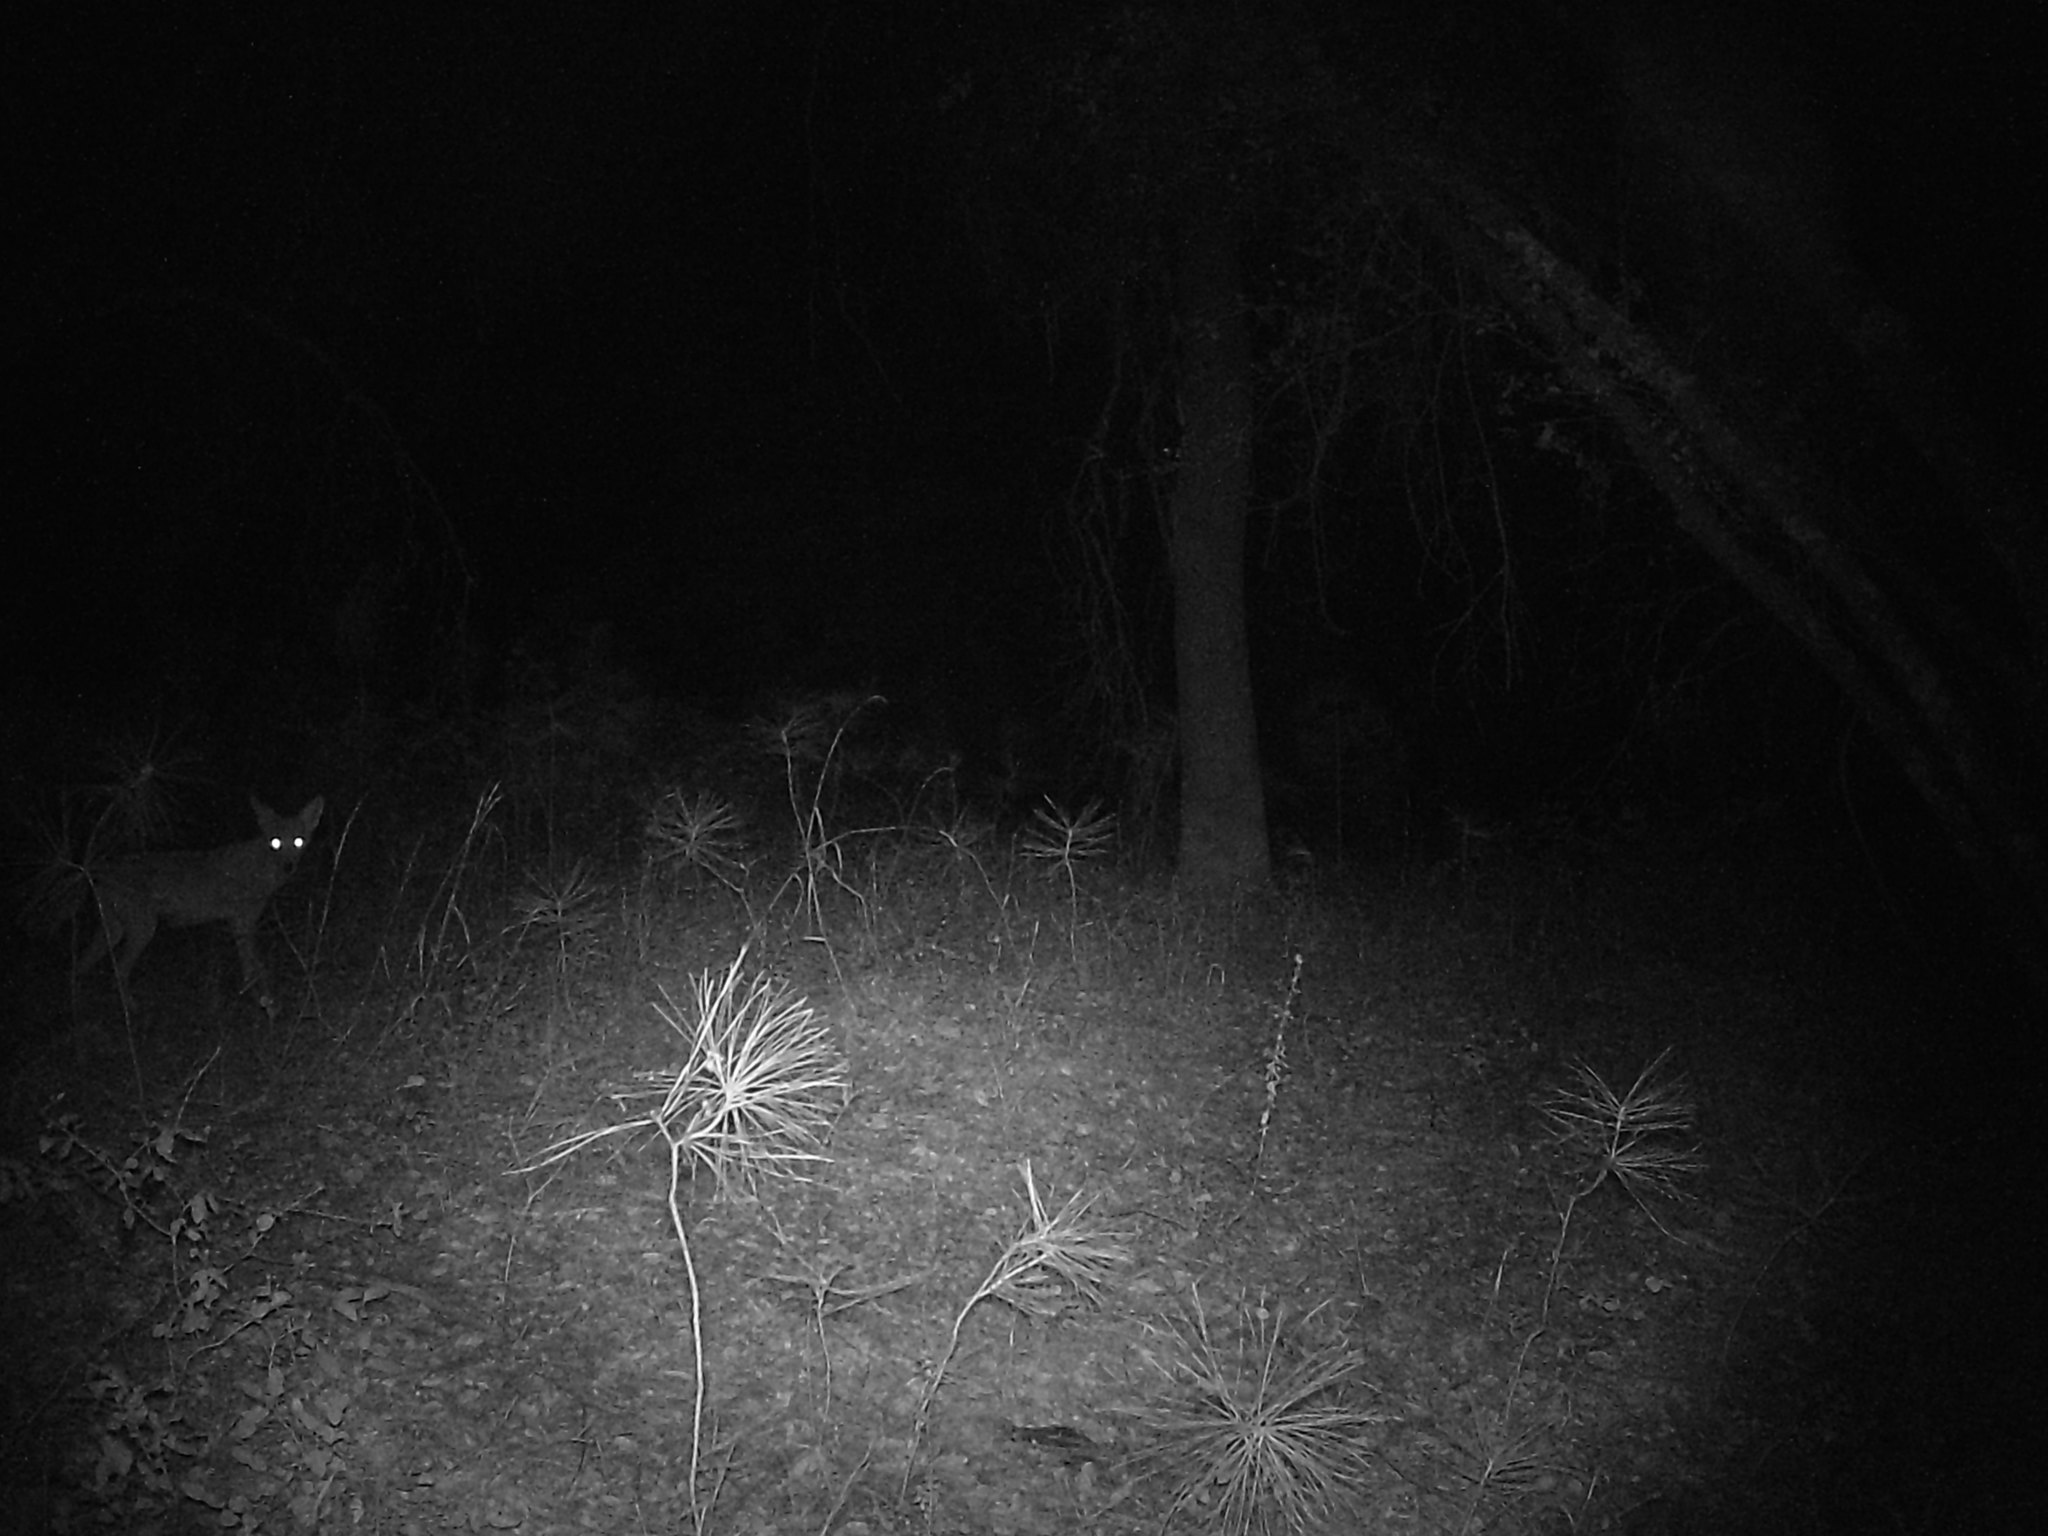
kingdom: Animalia
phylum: Chordata
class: Mammalia
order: Carnivora
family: Canidae
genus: Canis
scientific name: Canis latrans
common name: Coyote
